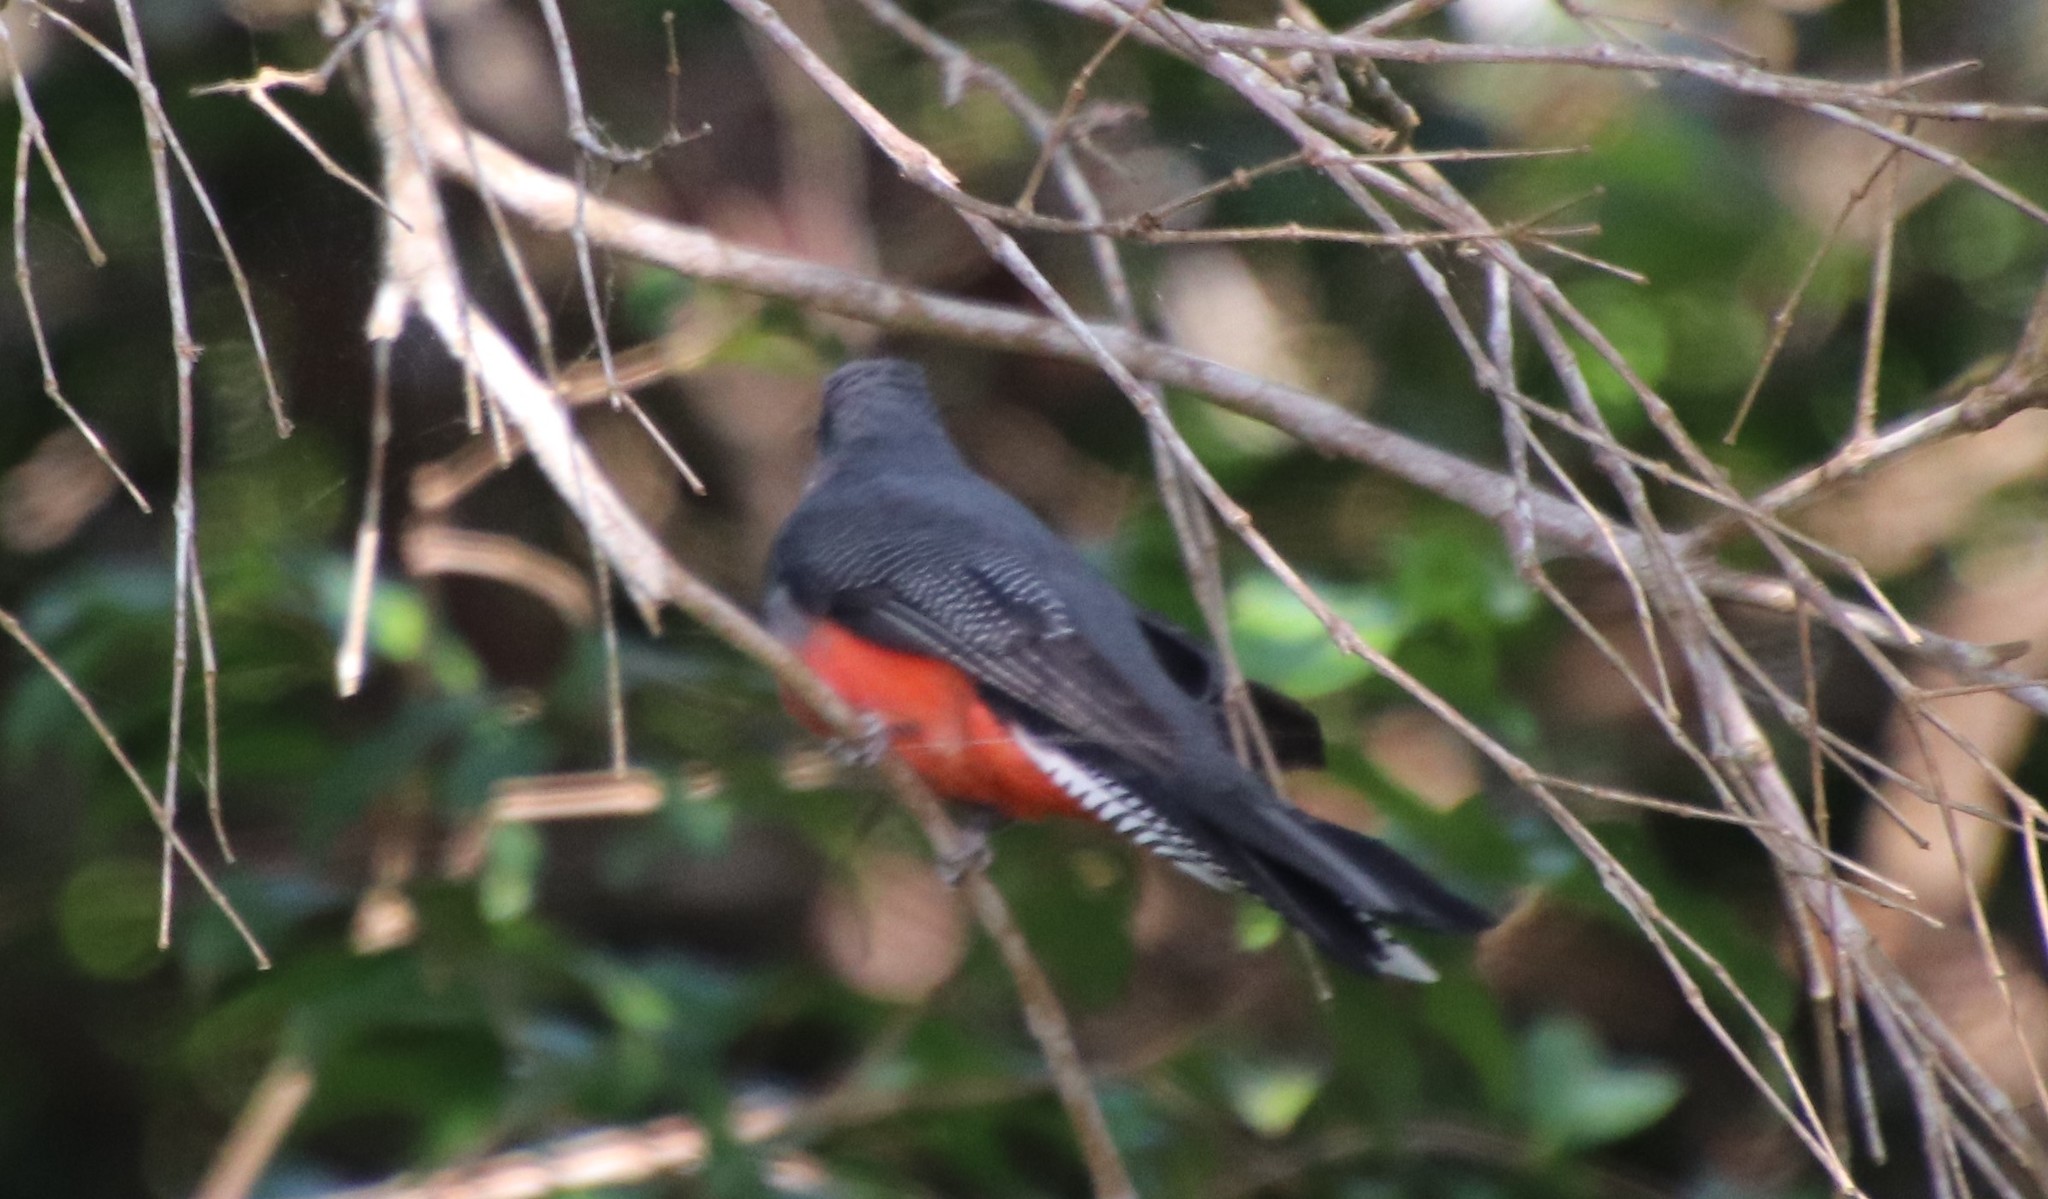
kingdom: Animalia
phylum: Chordata
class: Aves
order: Trogoniformes
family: Trogonidae
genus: Trogon
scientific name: Trogon curucui
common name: Blue-crowned trogon
